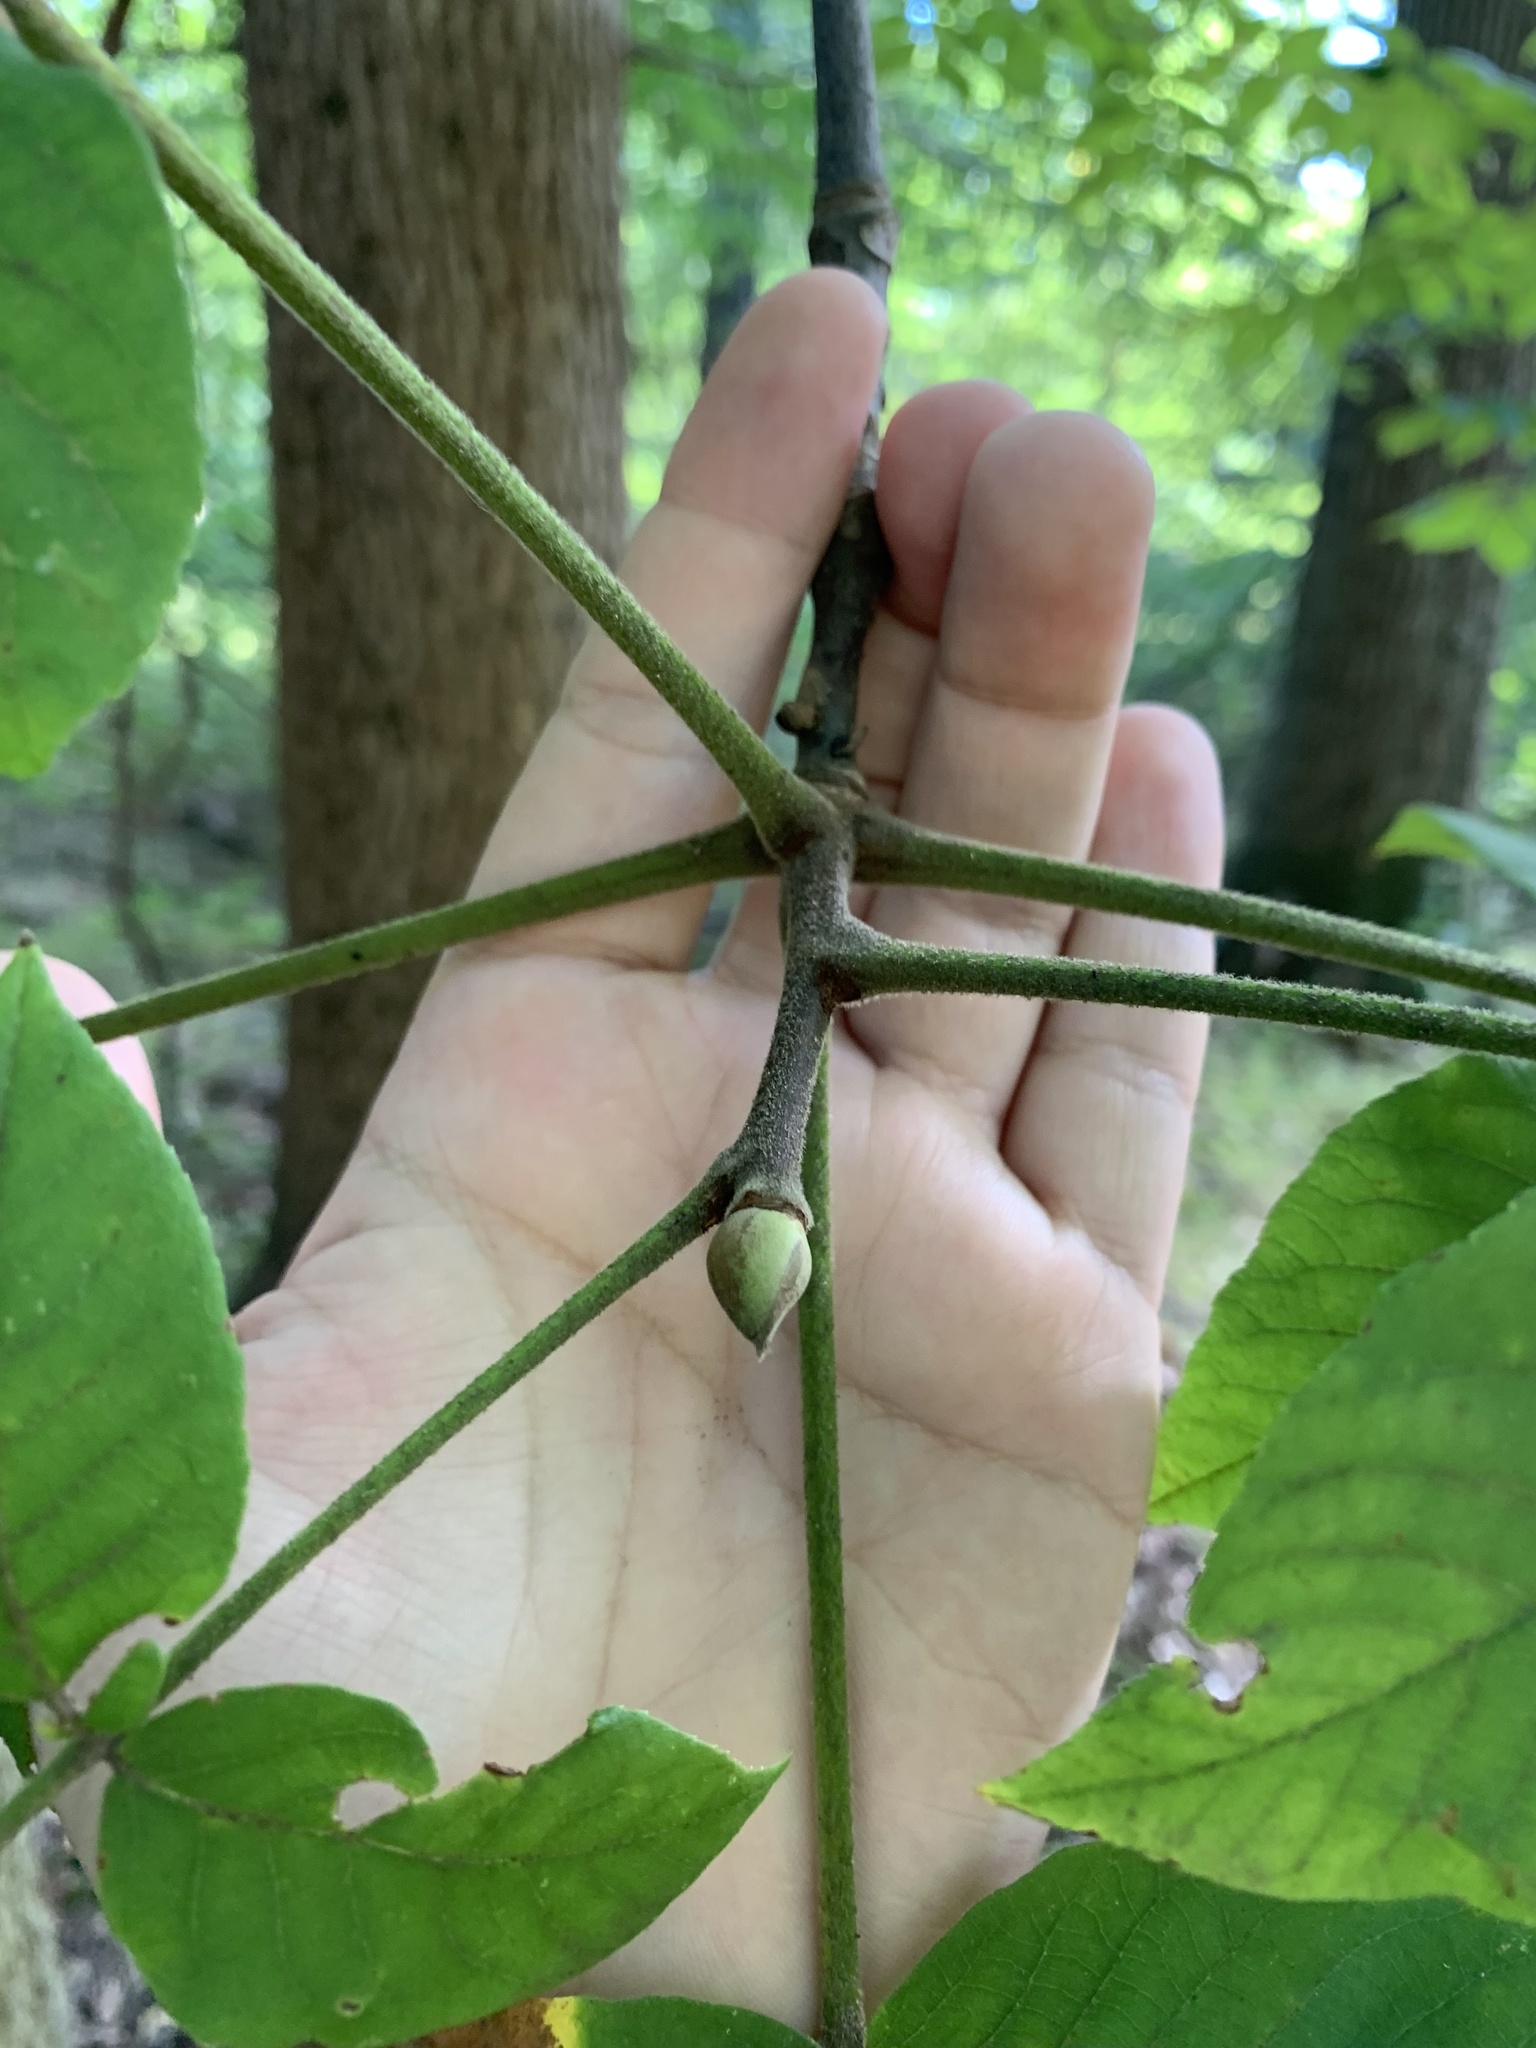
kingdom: Plantae
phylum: Tracheophyta
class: Magnoliopsida
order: Fagales
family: Juglandaceae
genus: Carya
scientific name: Carya alba
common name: Mockernut hickory
